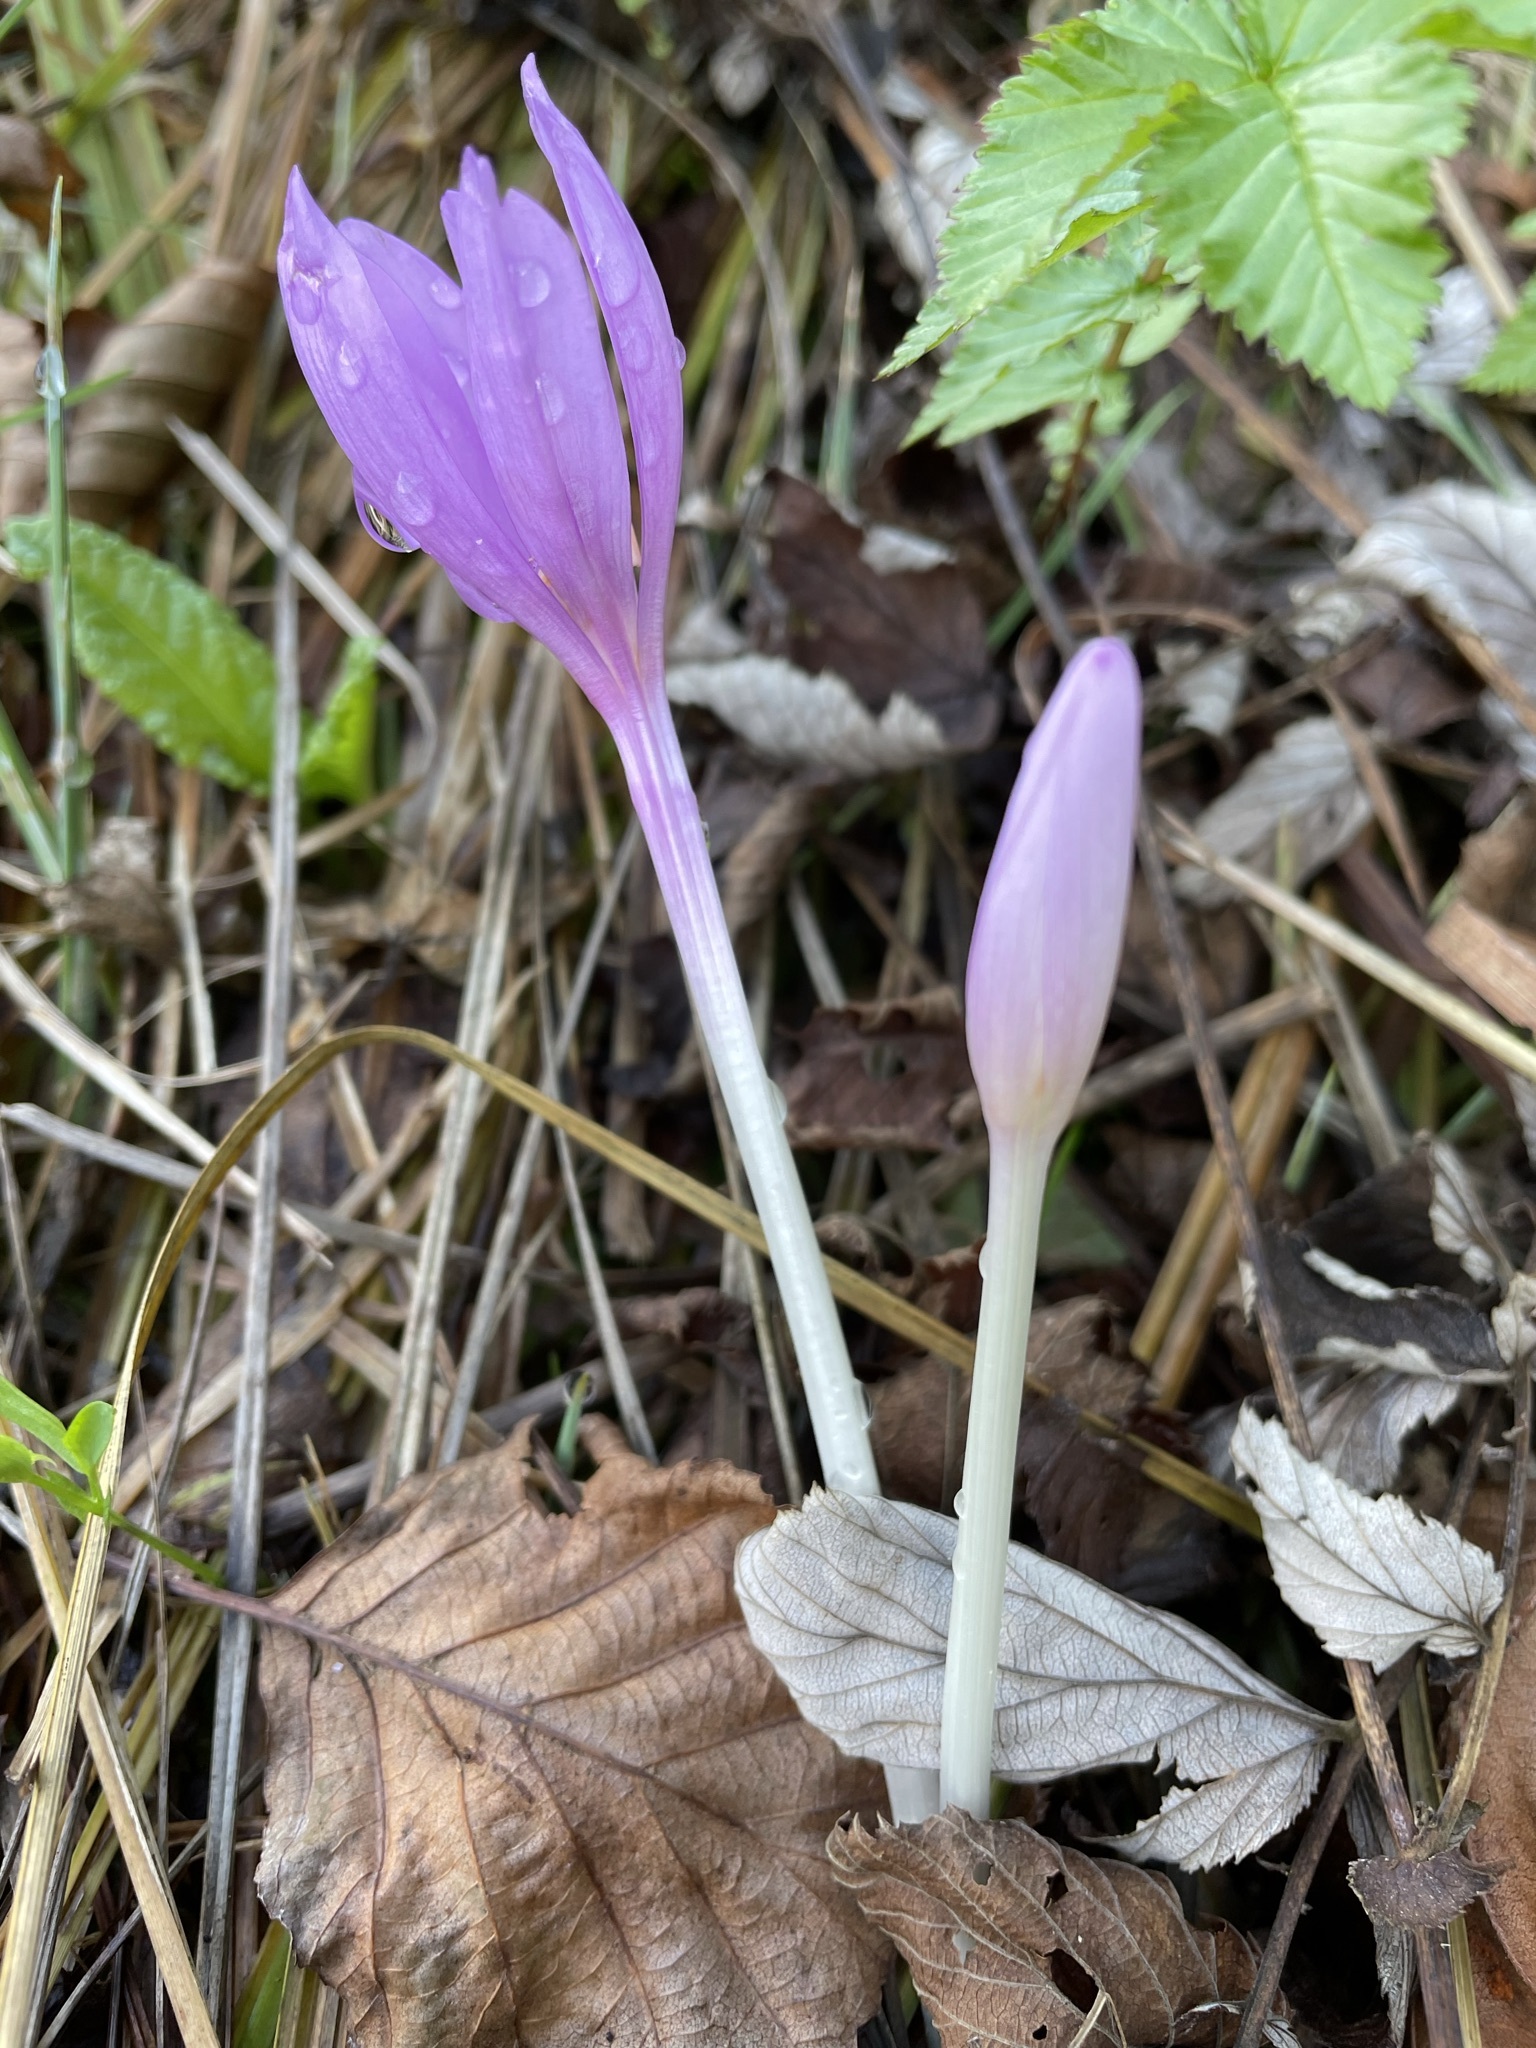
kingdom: Plantae
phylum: Tracheophyta
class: Liliopsida
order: Liliales
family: Colchicaceae
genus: Colchicum
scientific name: Colchicum autumnale
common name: Autumn crocus
